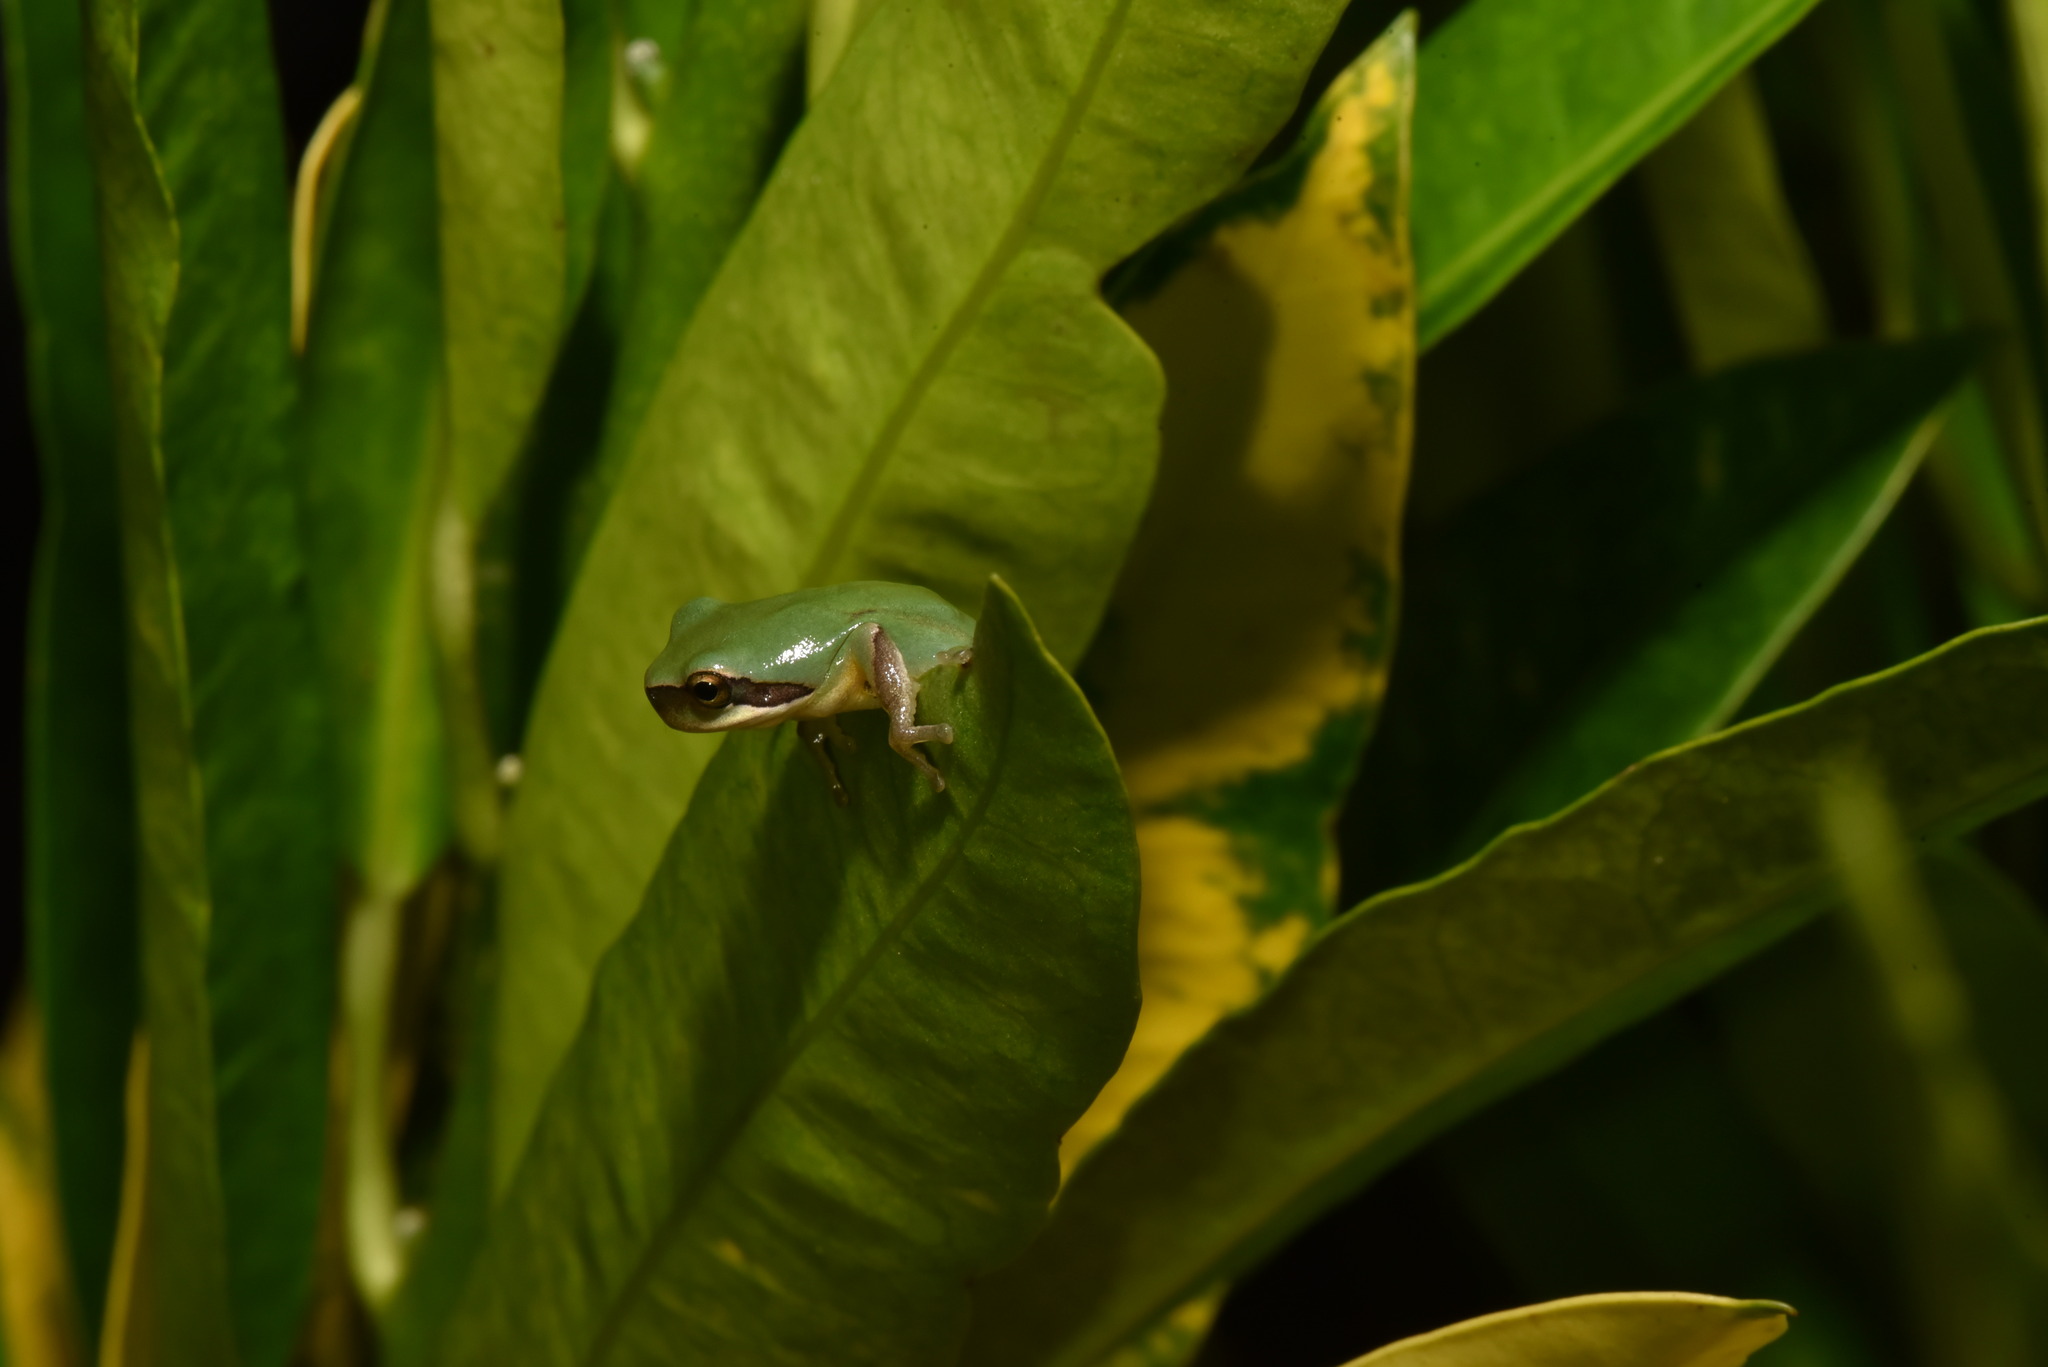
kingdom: Animalia
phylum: Chordata
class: Amphibia
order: Anura
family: Hylidae
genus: Hyla
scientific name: Hyla chinensis
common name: Common chinese treefrog
